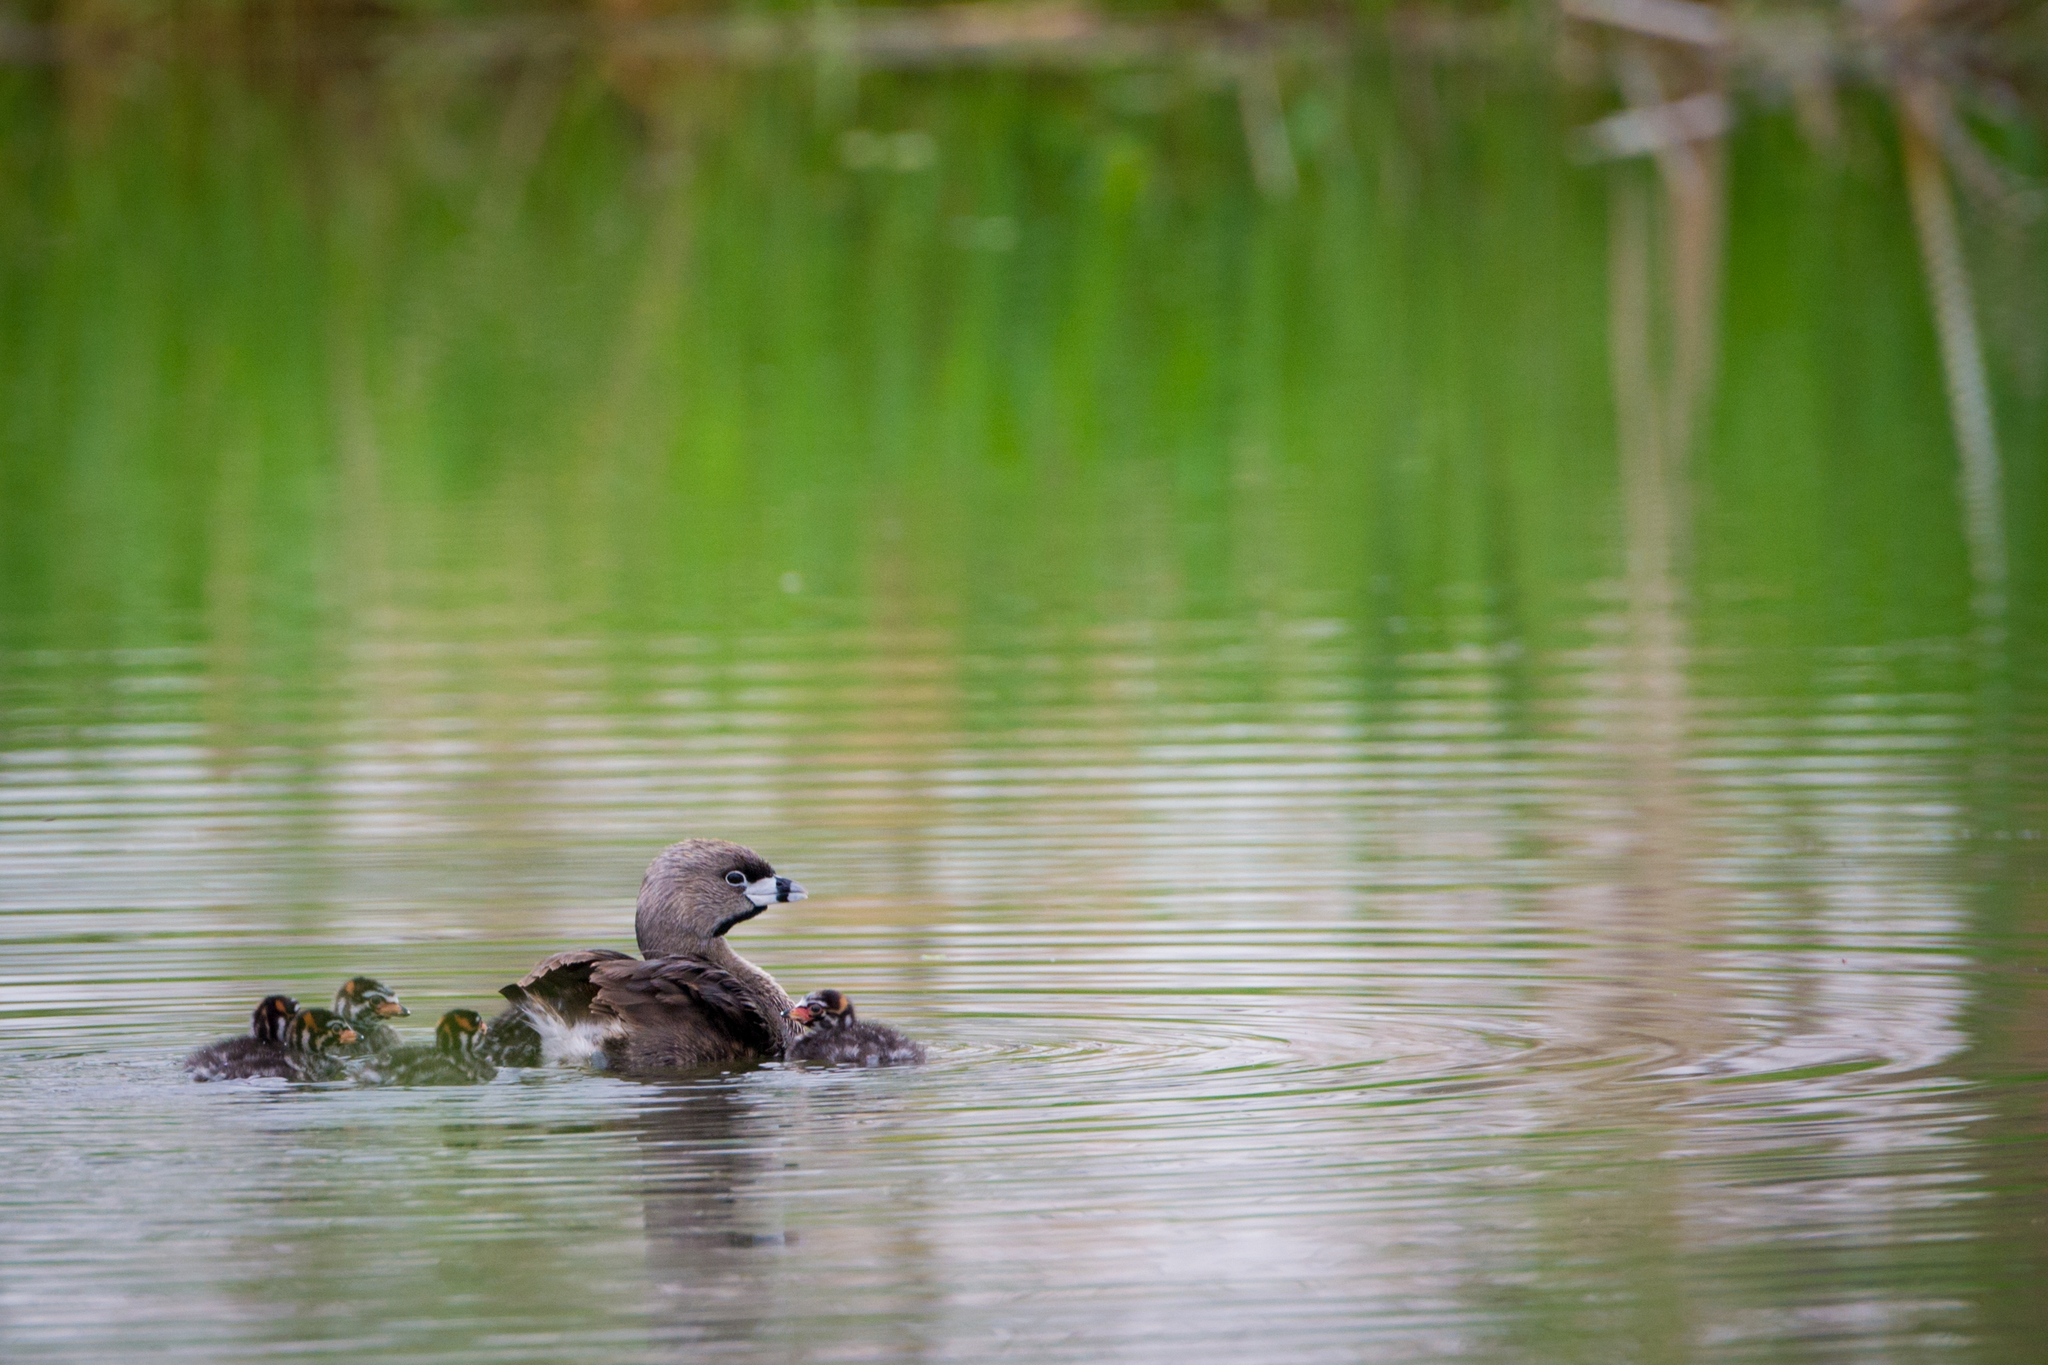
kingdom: Animalia
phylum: Chordata
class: Aves
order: Podicipediformes
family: Podicipedidae
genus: Podilymbus
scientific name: Podilymbus podiceps
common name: Pied-billed grebe
